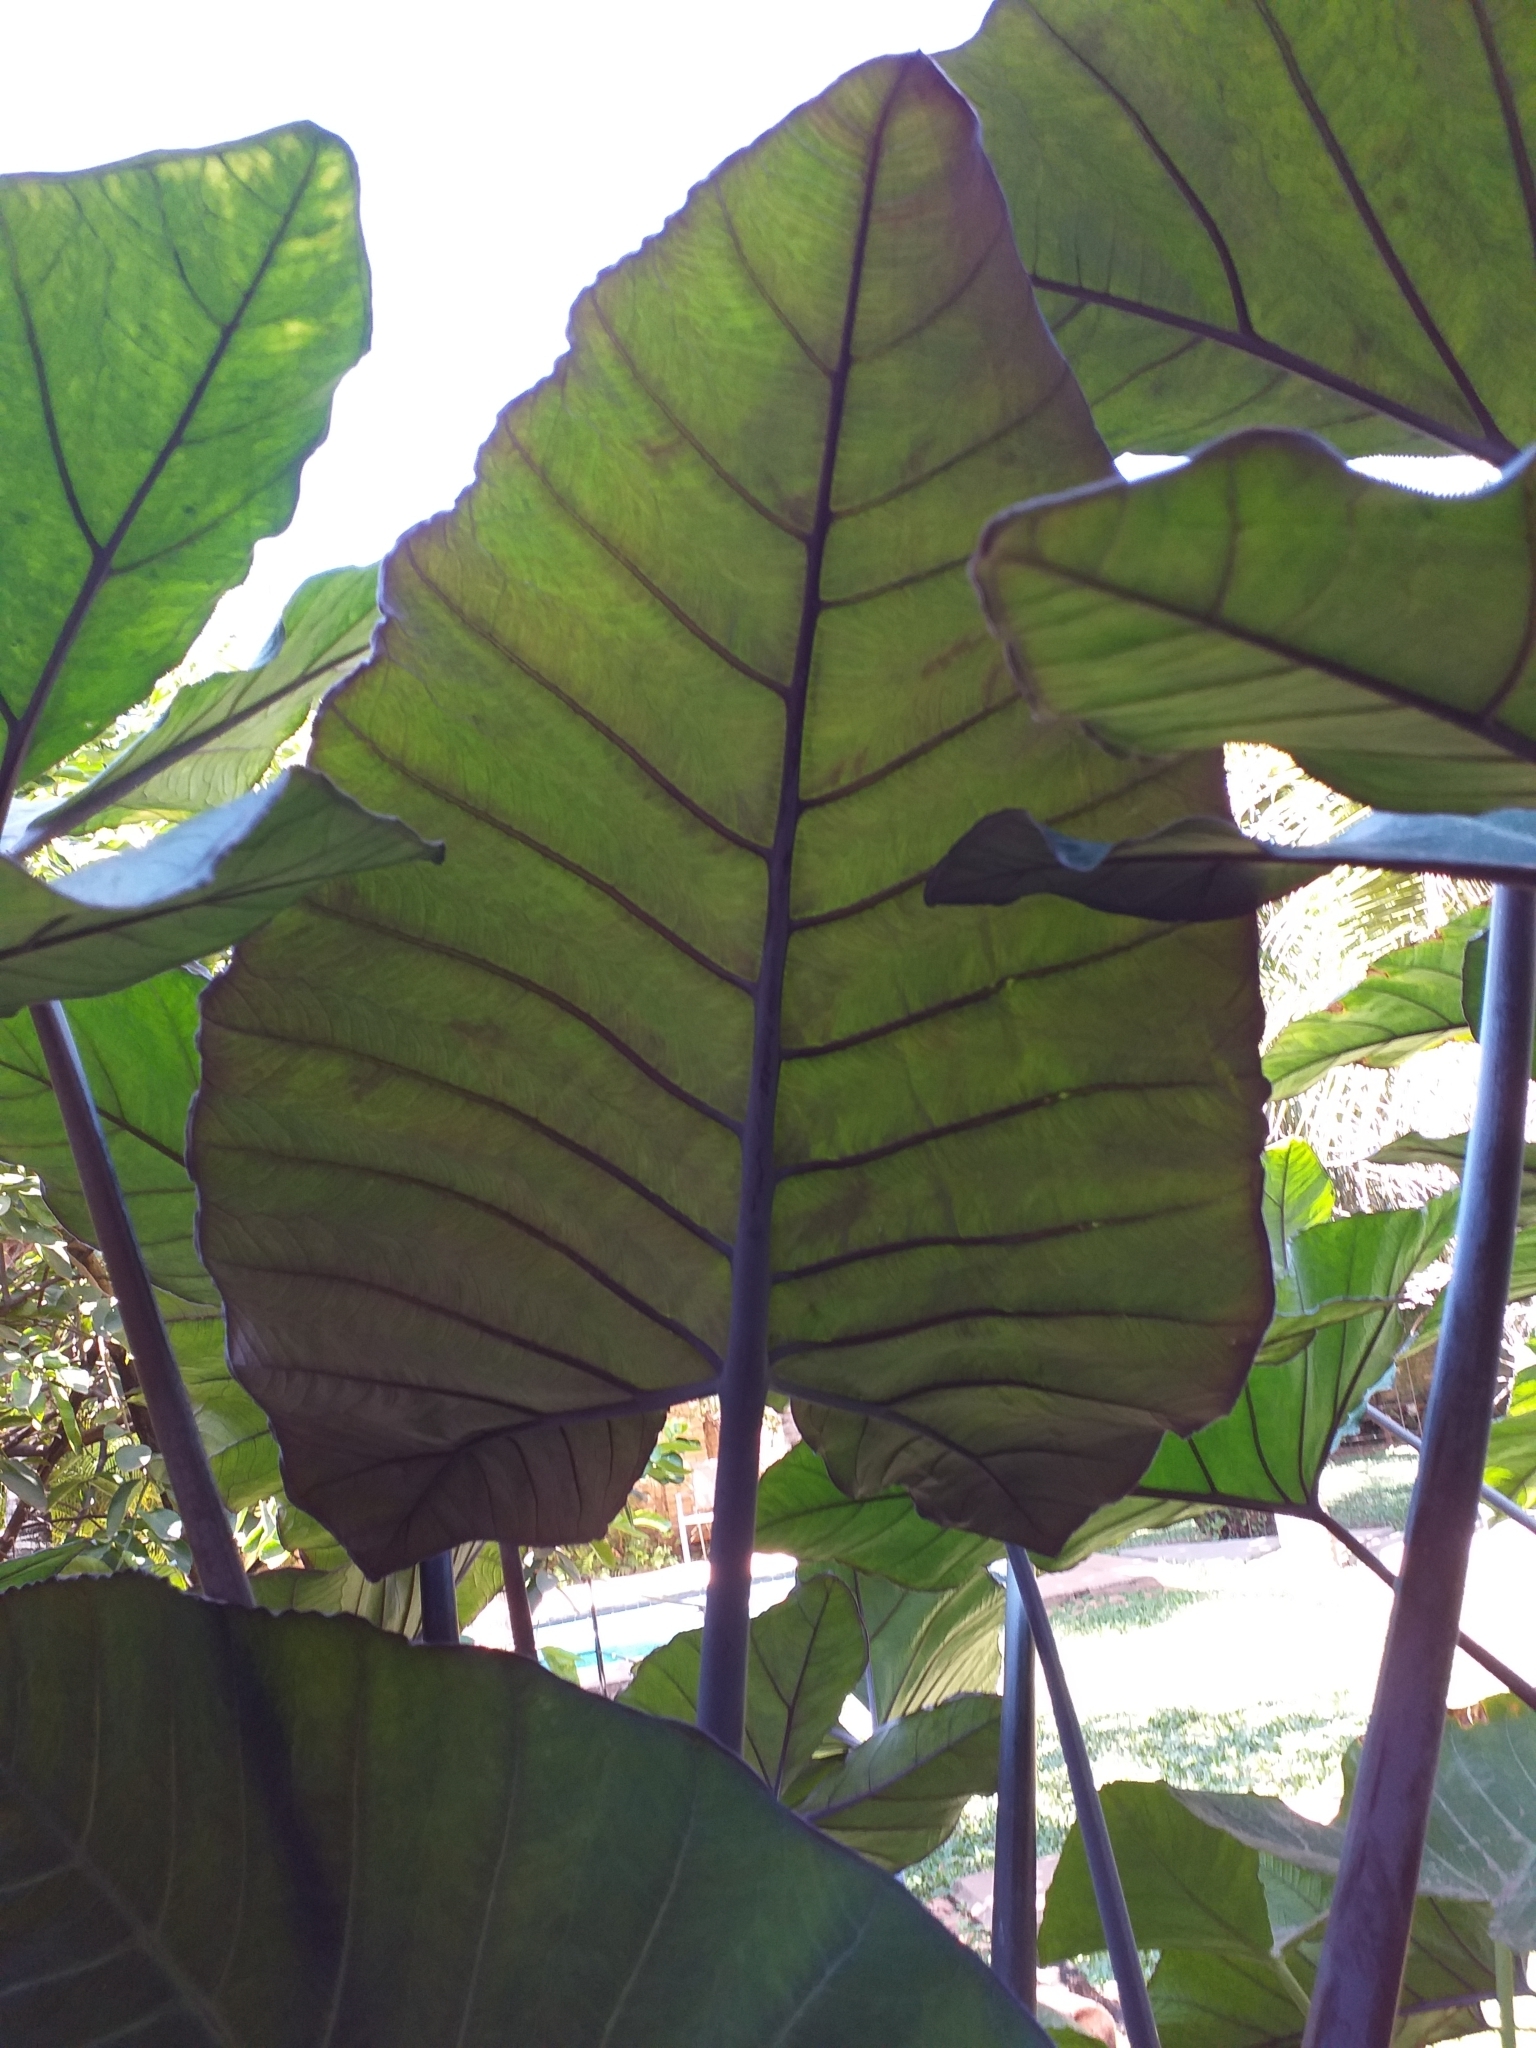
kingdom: Plantae
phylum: Tracheophyta
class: Liliopsida
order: Alismatales
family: Araceae
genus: Xanthosoma
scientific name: Xanthosoma sagittifolium
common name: Arrowleaf elephant's ear
